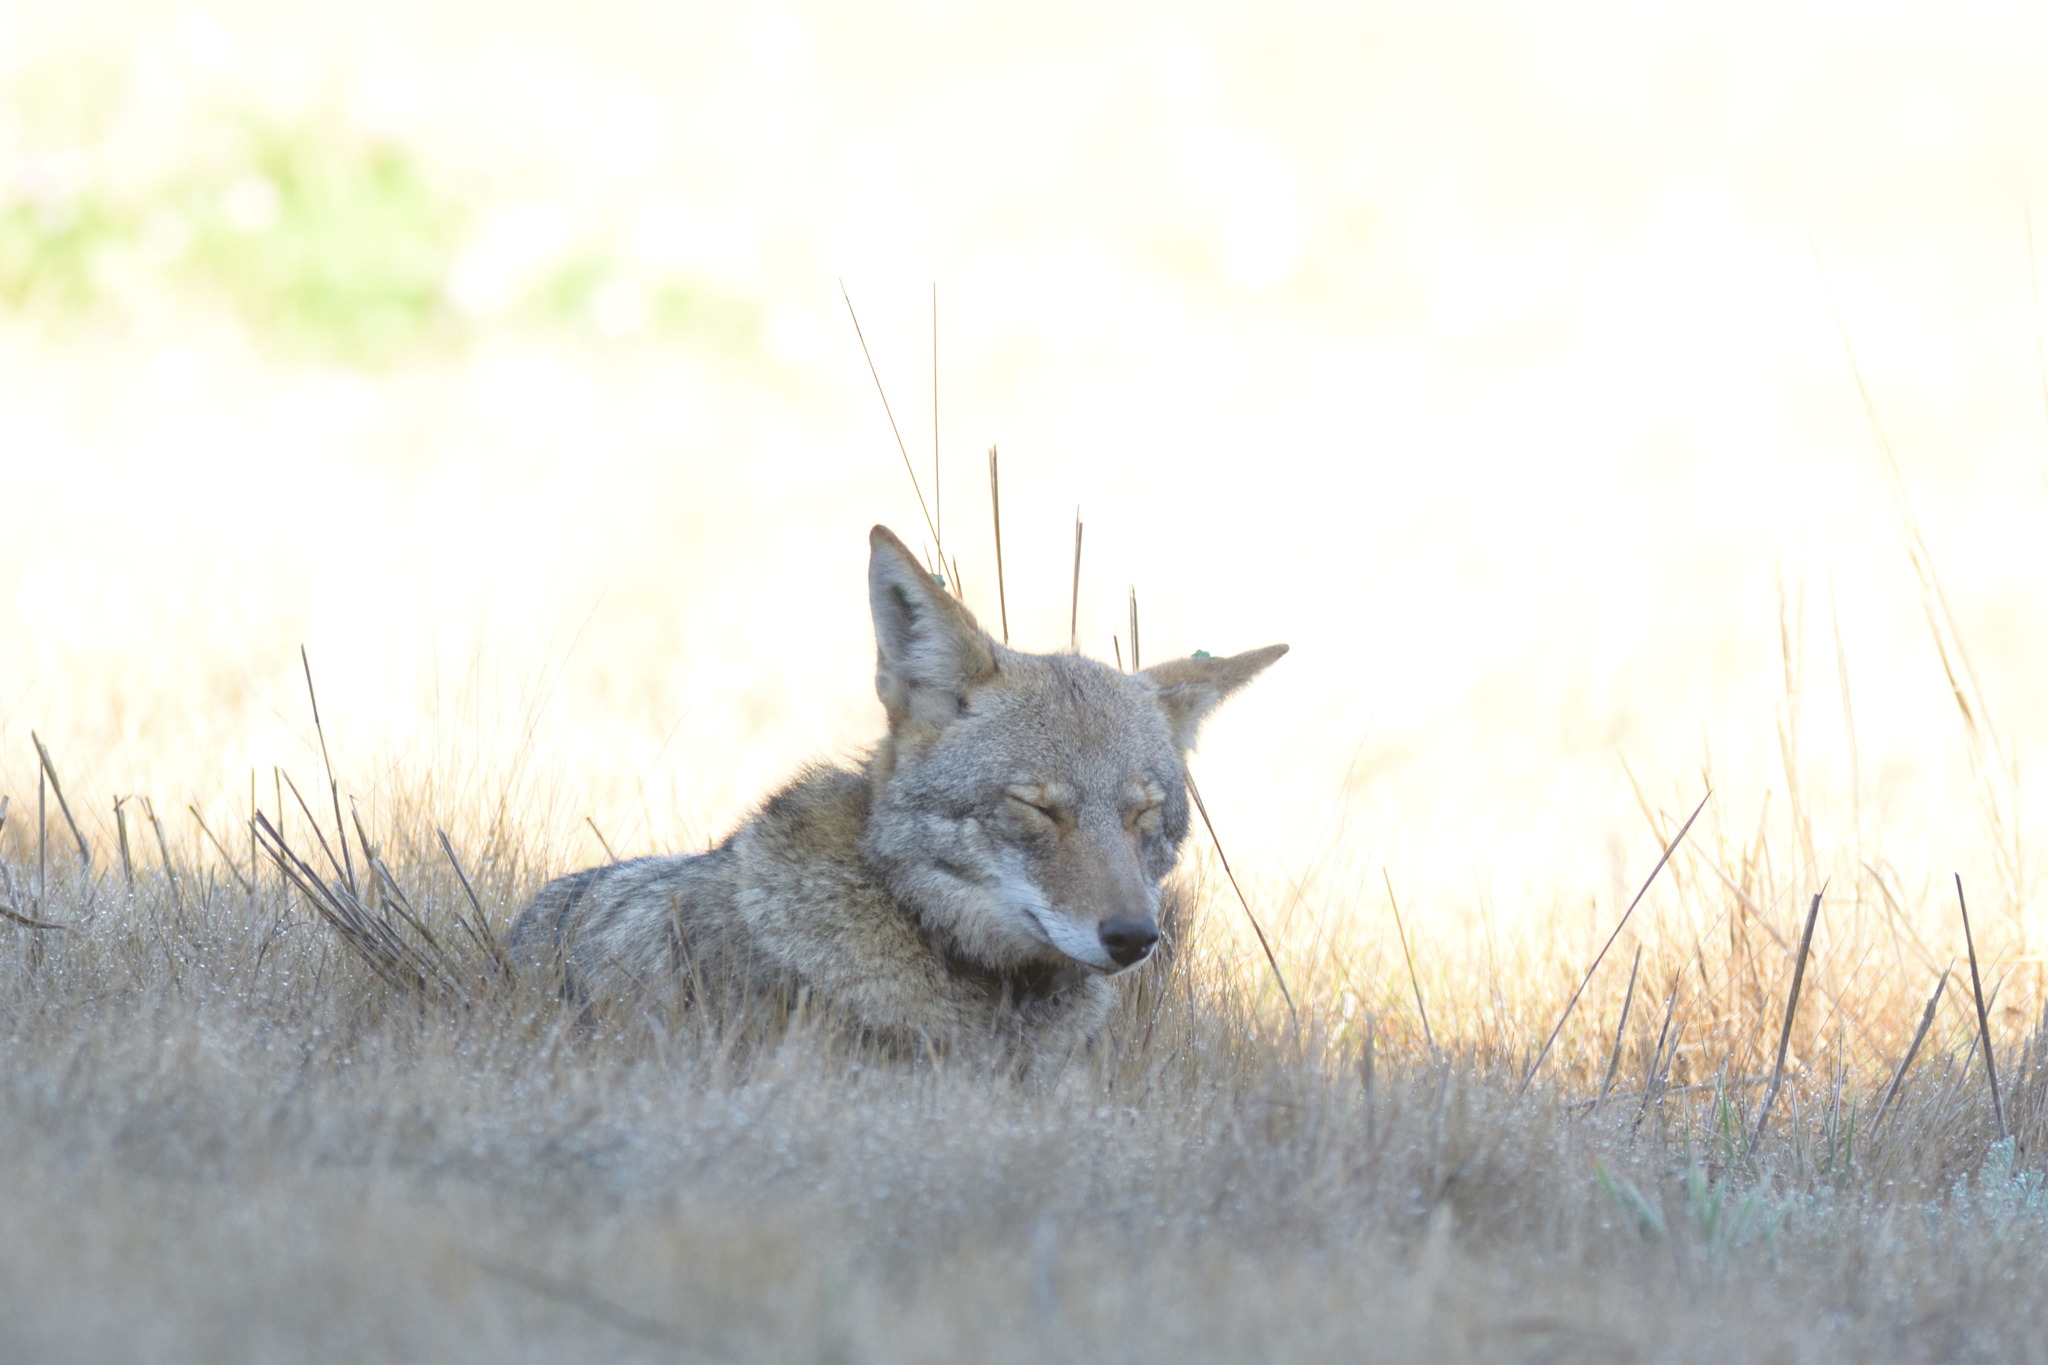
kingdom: Animalia
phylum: Chordata
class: Mammalia
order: Carnivora
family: Canidae
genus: Canis
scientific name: Canis latrans
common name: Coyote
